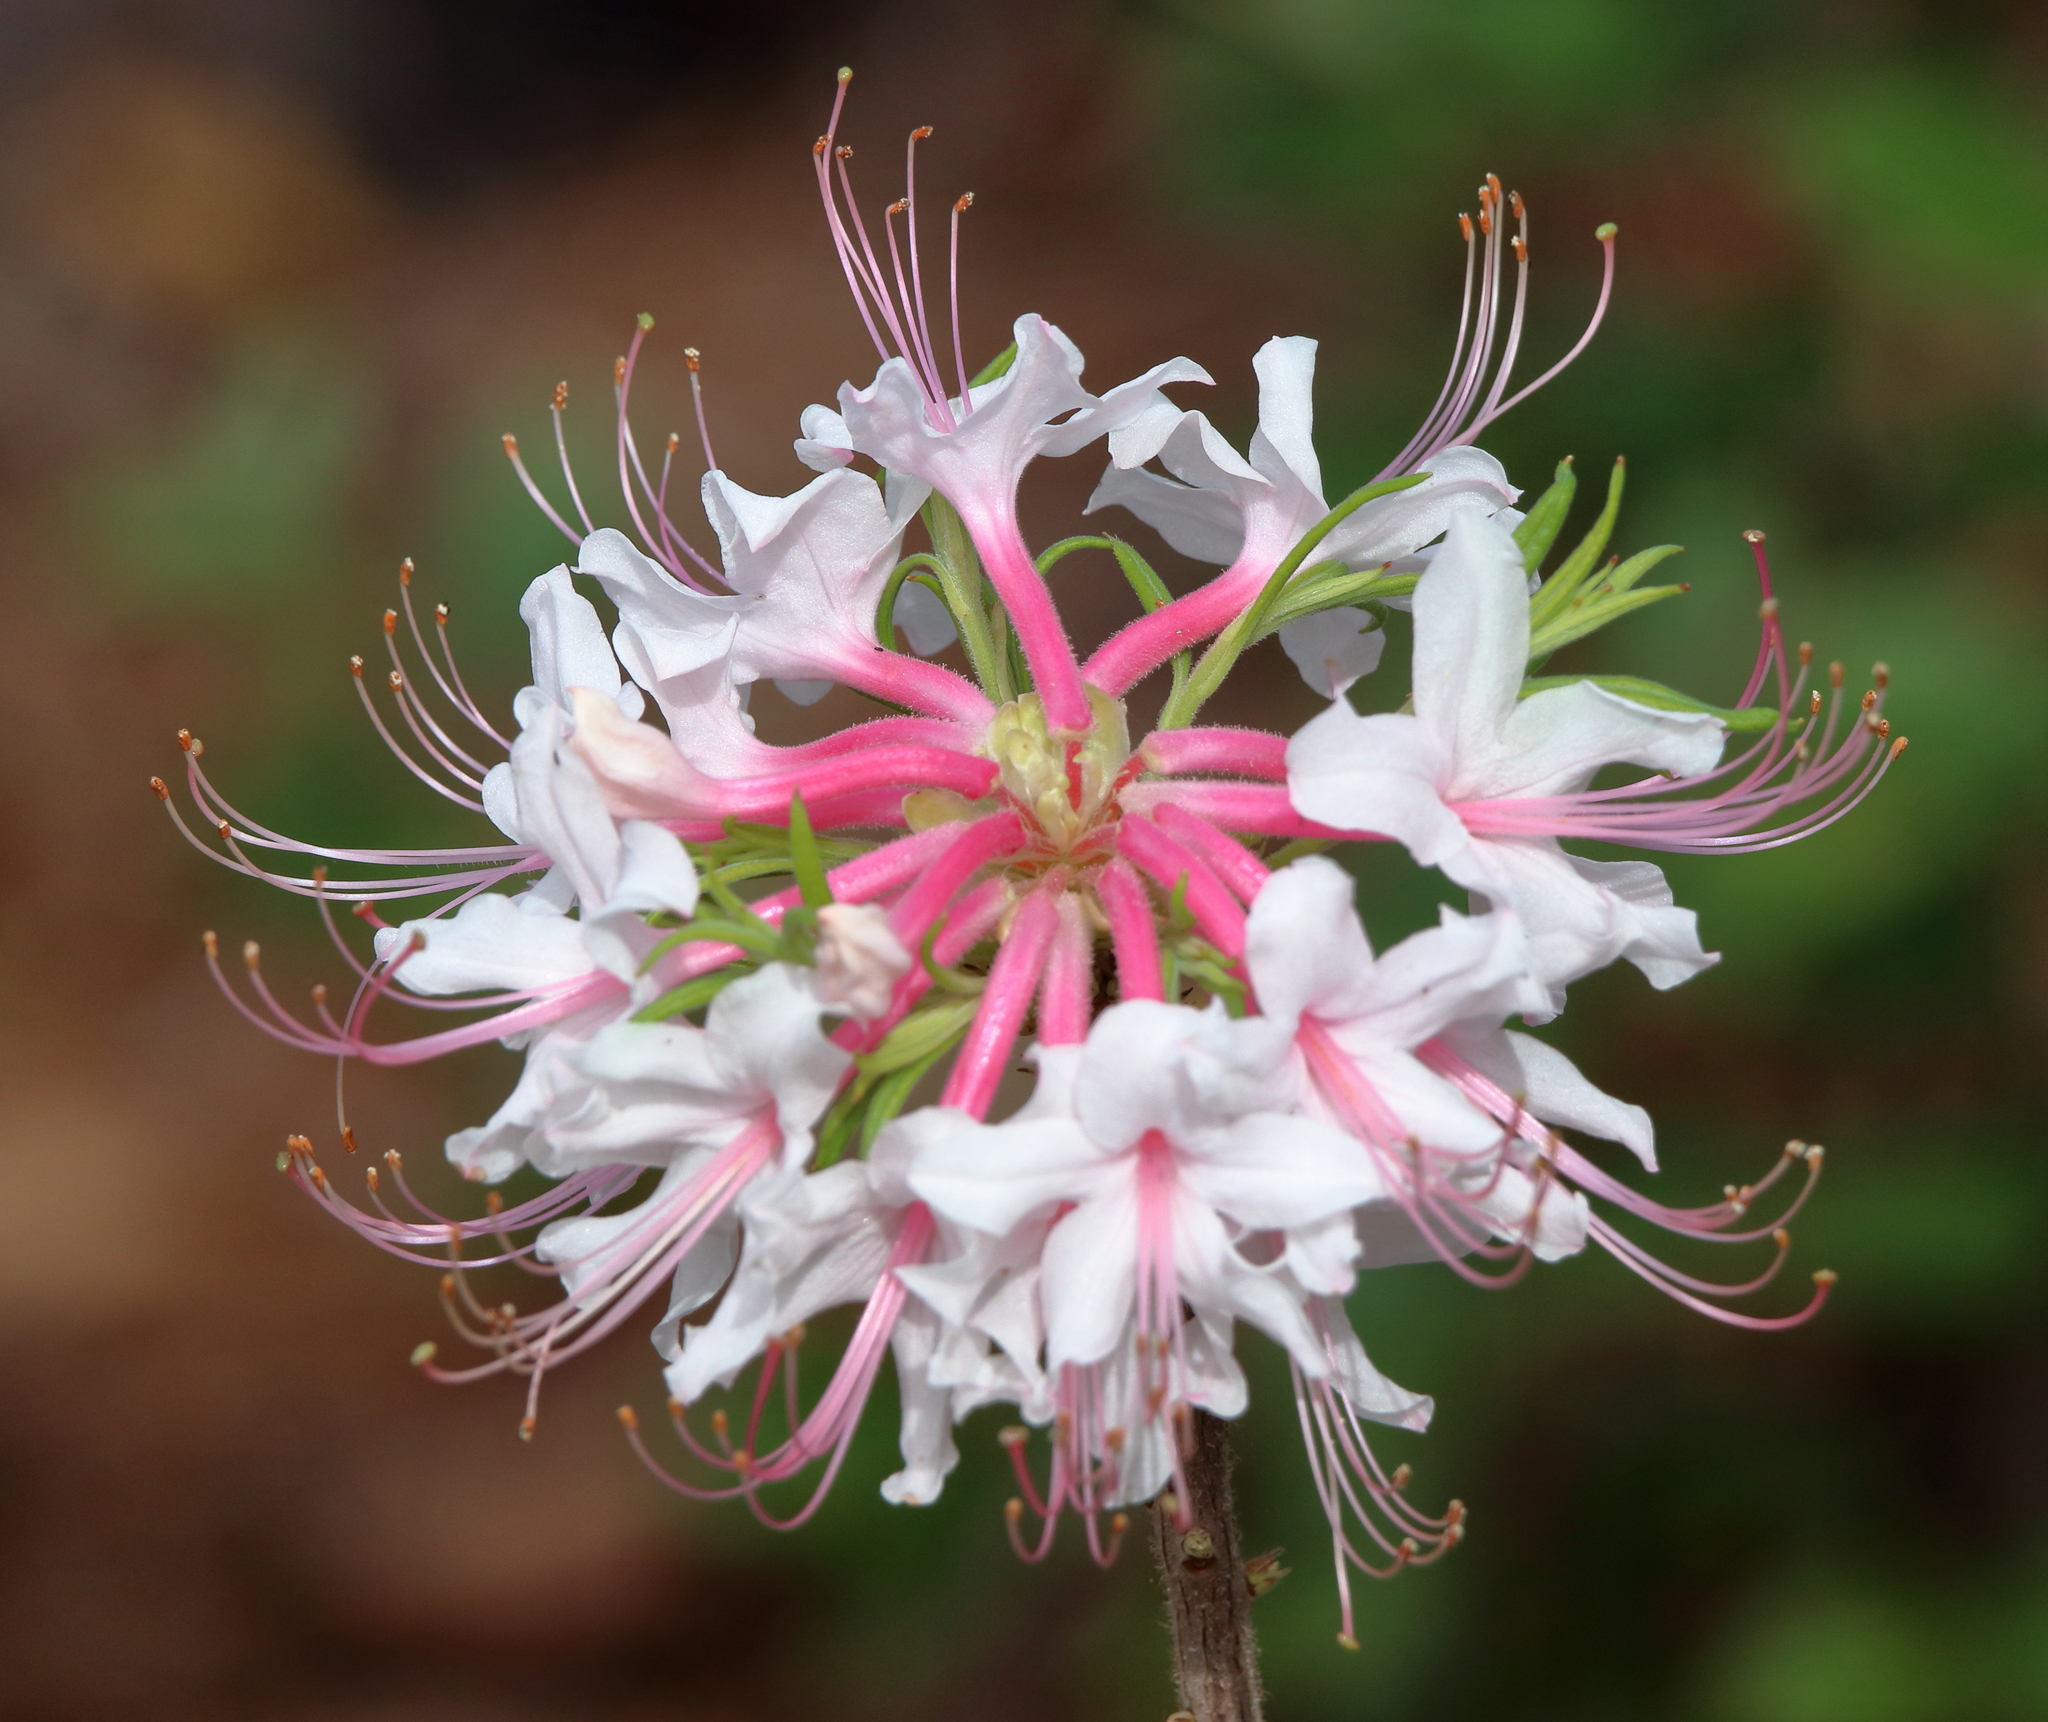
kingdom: Plantae
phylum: Tracheophyta
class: Magnoliopsida
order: Ericales
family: Ericaceae
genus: Rhododendron
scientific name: Rhododendron canescens
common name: Mountain azalea
